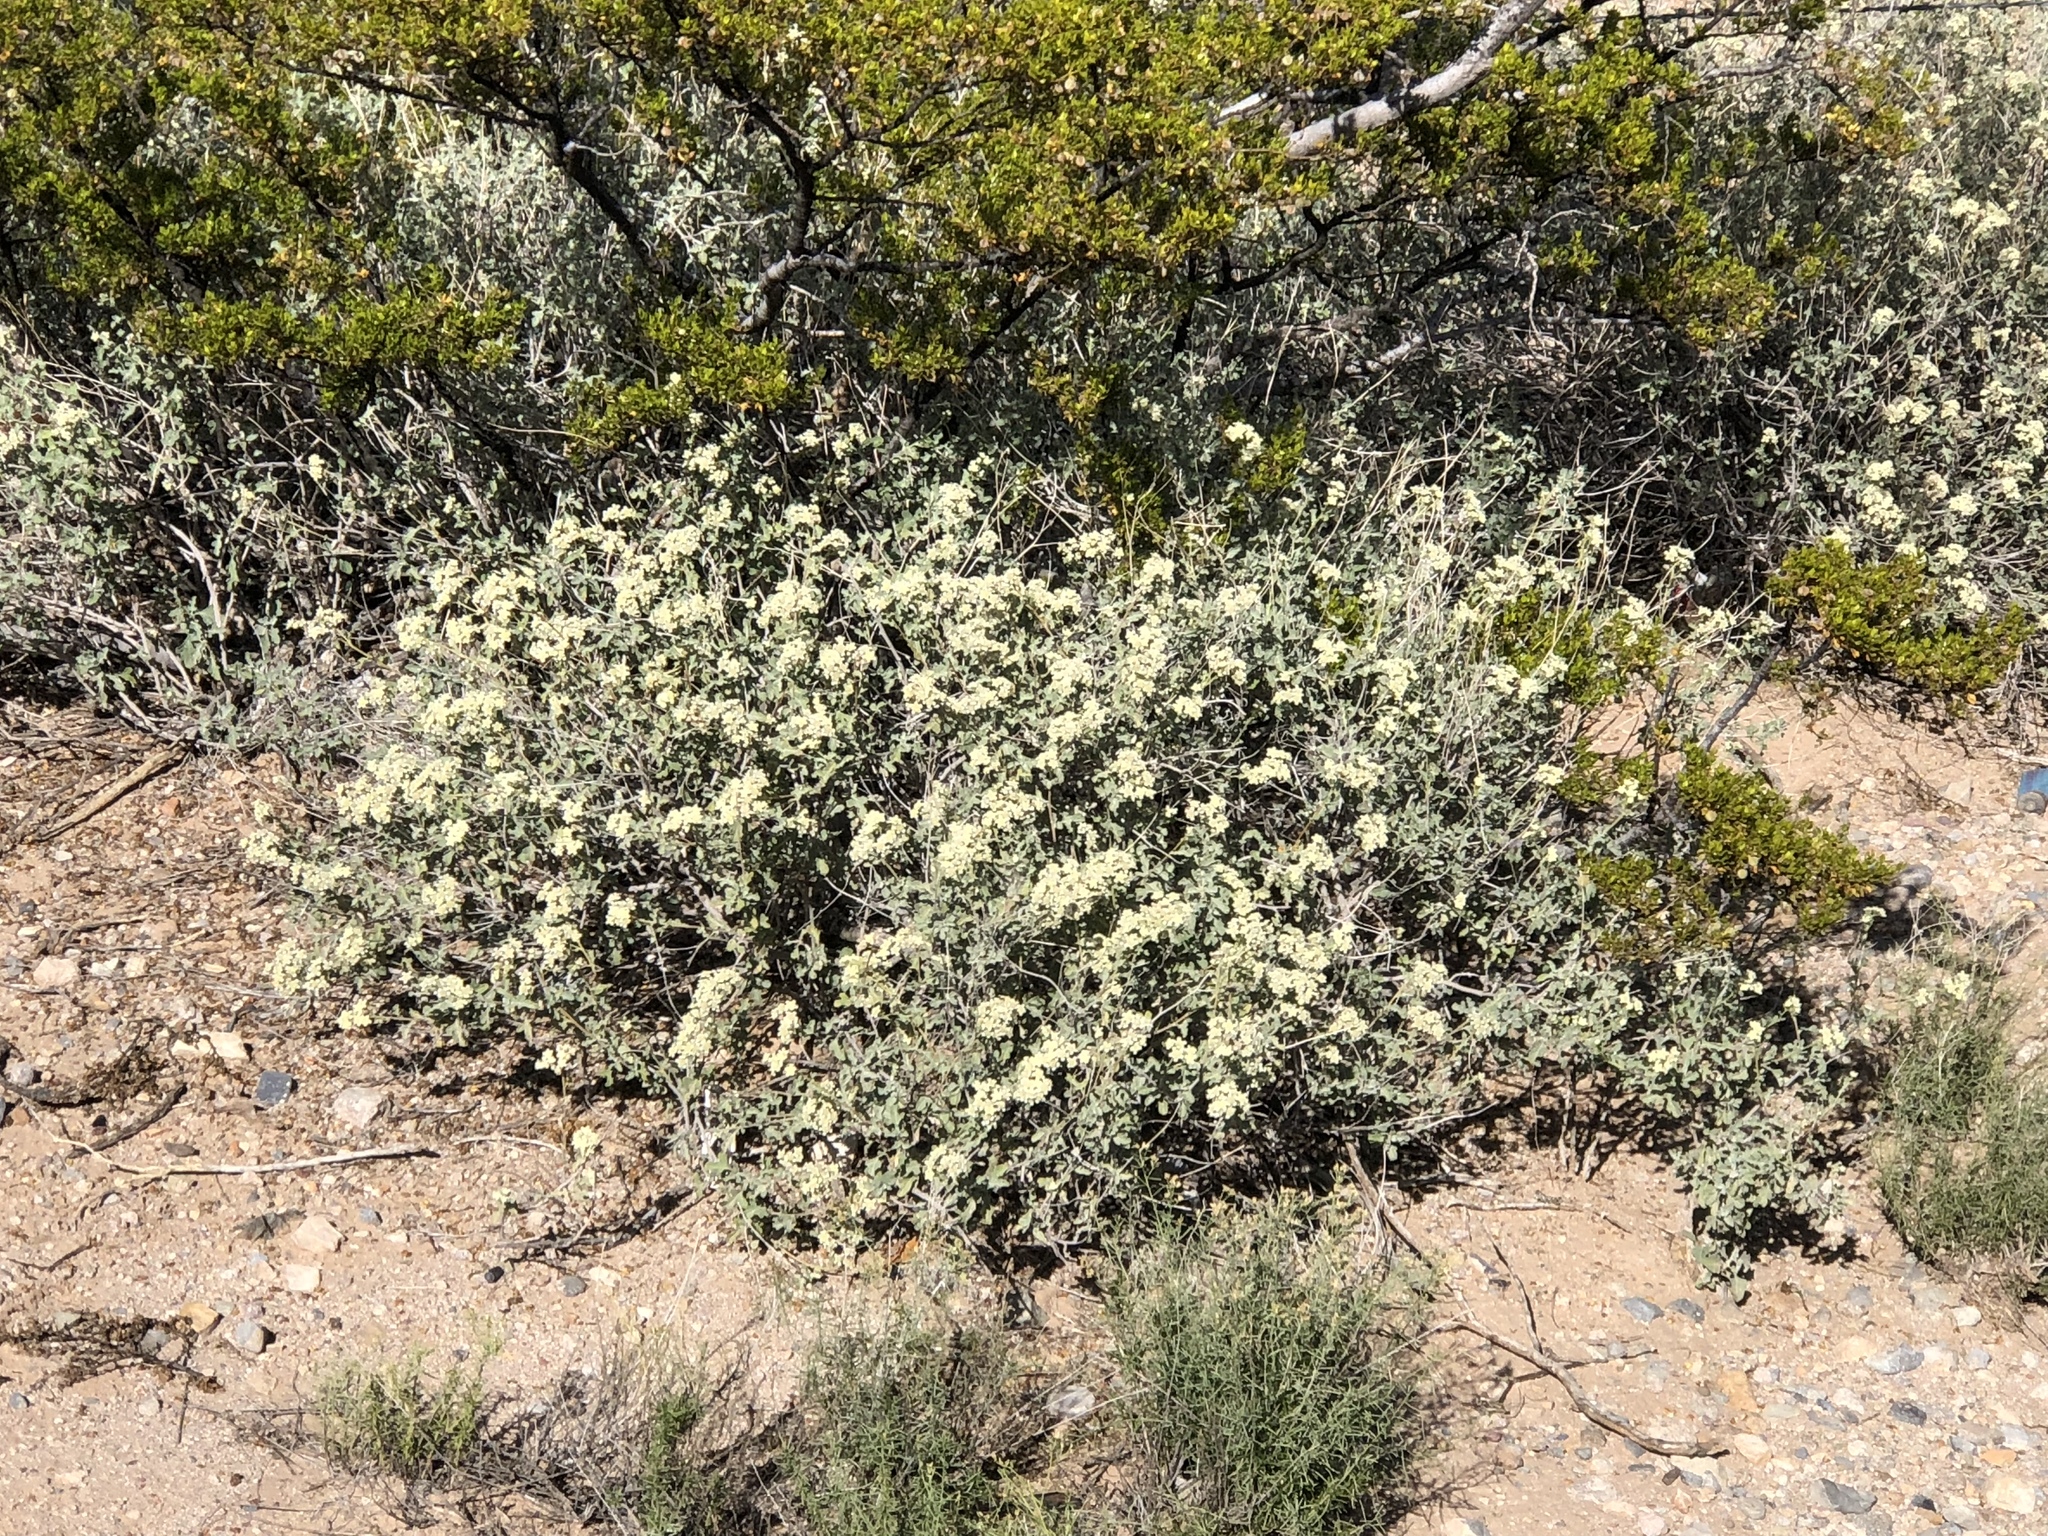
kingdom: Plantae
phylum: Tracheophyta
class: Magnoliopsida
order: Asterales
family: Asteraceae
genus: Parthenium
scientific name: Parthenium incanum
